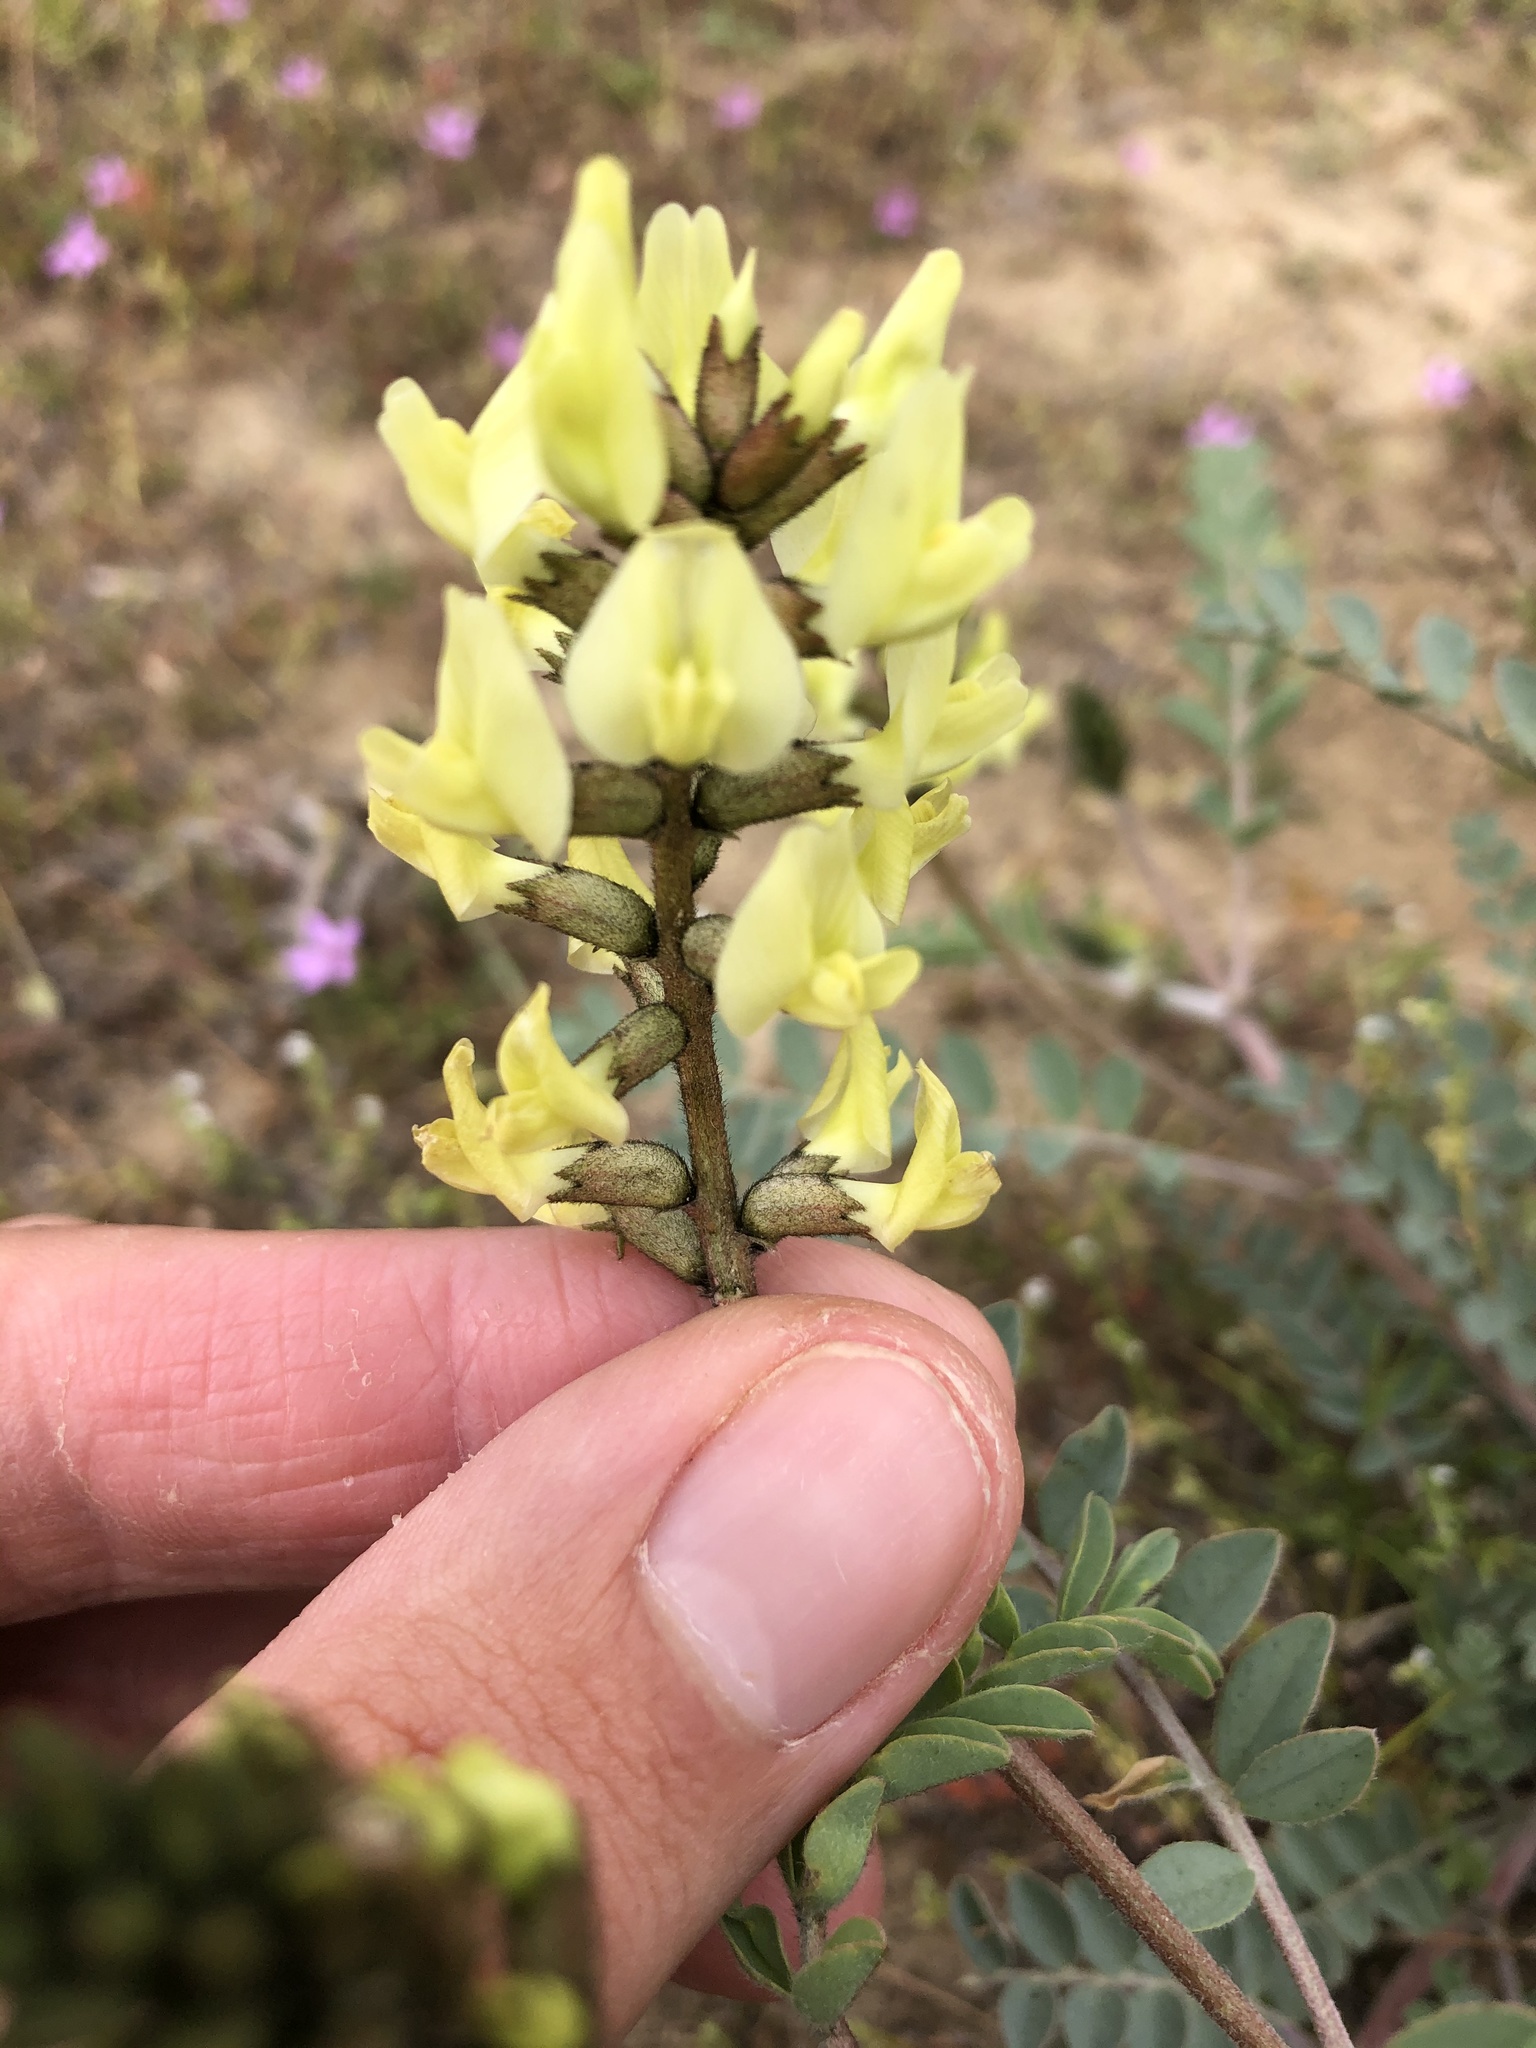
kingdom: Plantae
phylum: Tracheophyta
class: Magnoliopsida
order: Fabales
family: Fabaceae
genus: Astragalus
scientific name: Astragalus lentiginosus
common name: Freckled milkvetch
